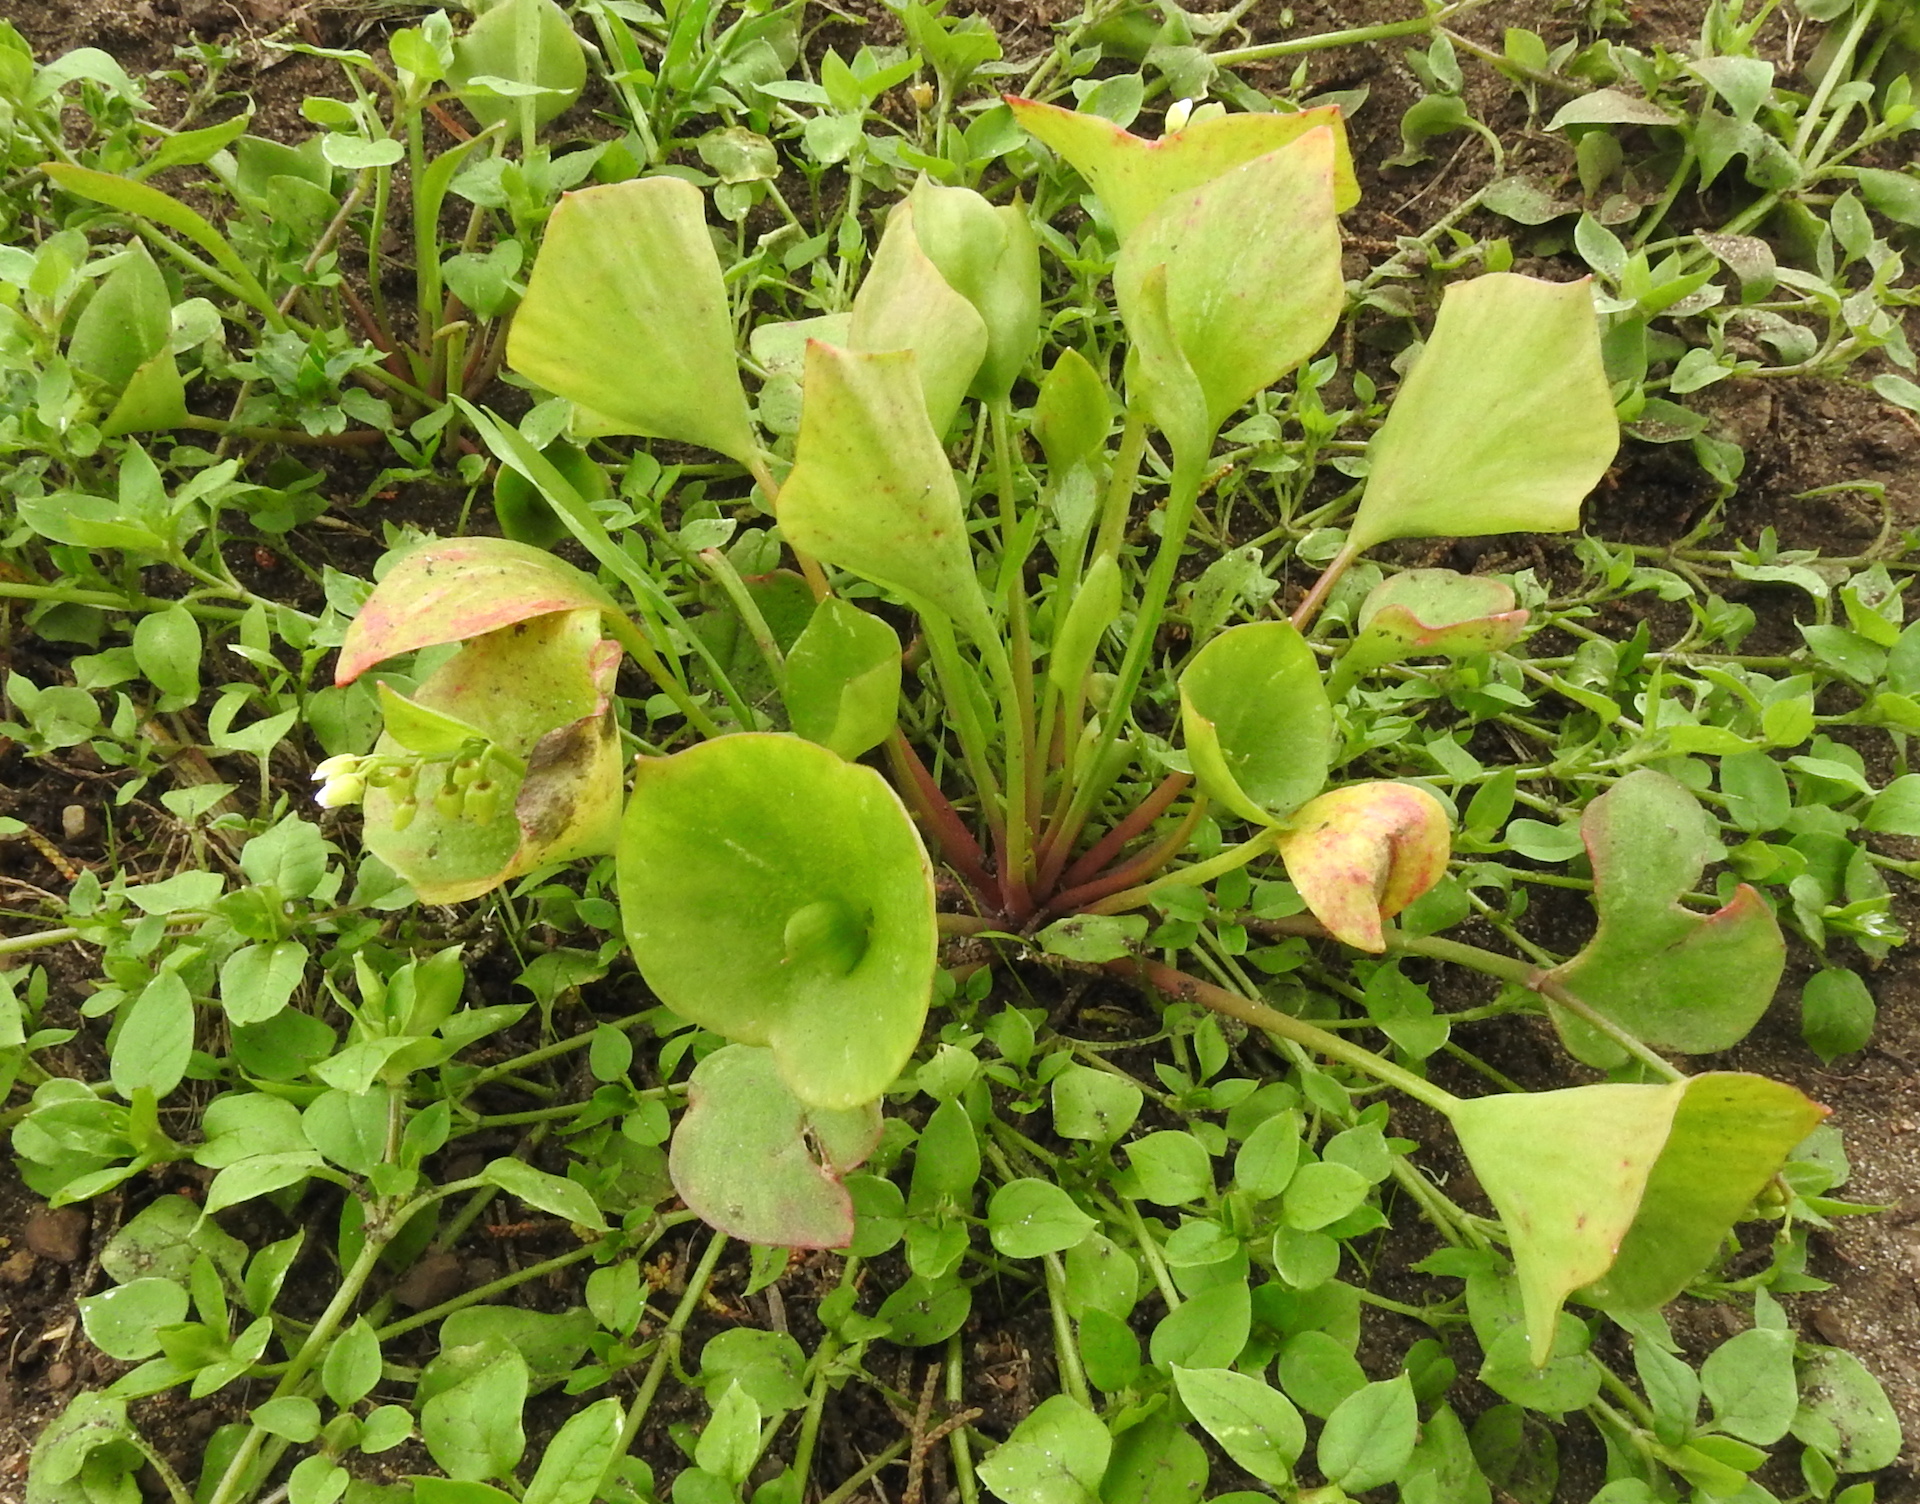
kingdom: Plantae
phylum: Tracheophyta
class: Magnoliopsida
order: Caryophyllales
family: Montiaceae
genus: Claytonia
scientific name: Claytonia perfoliata
